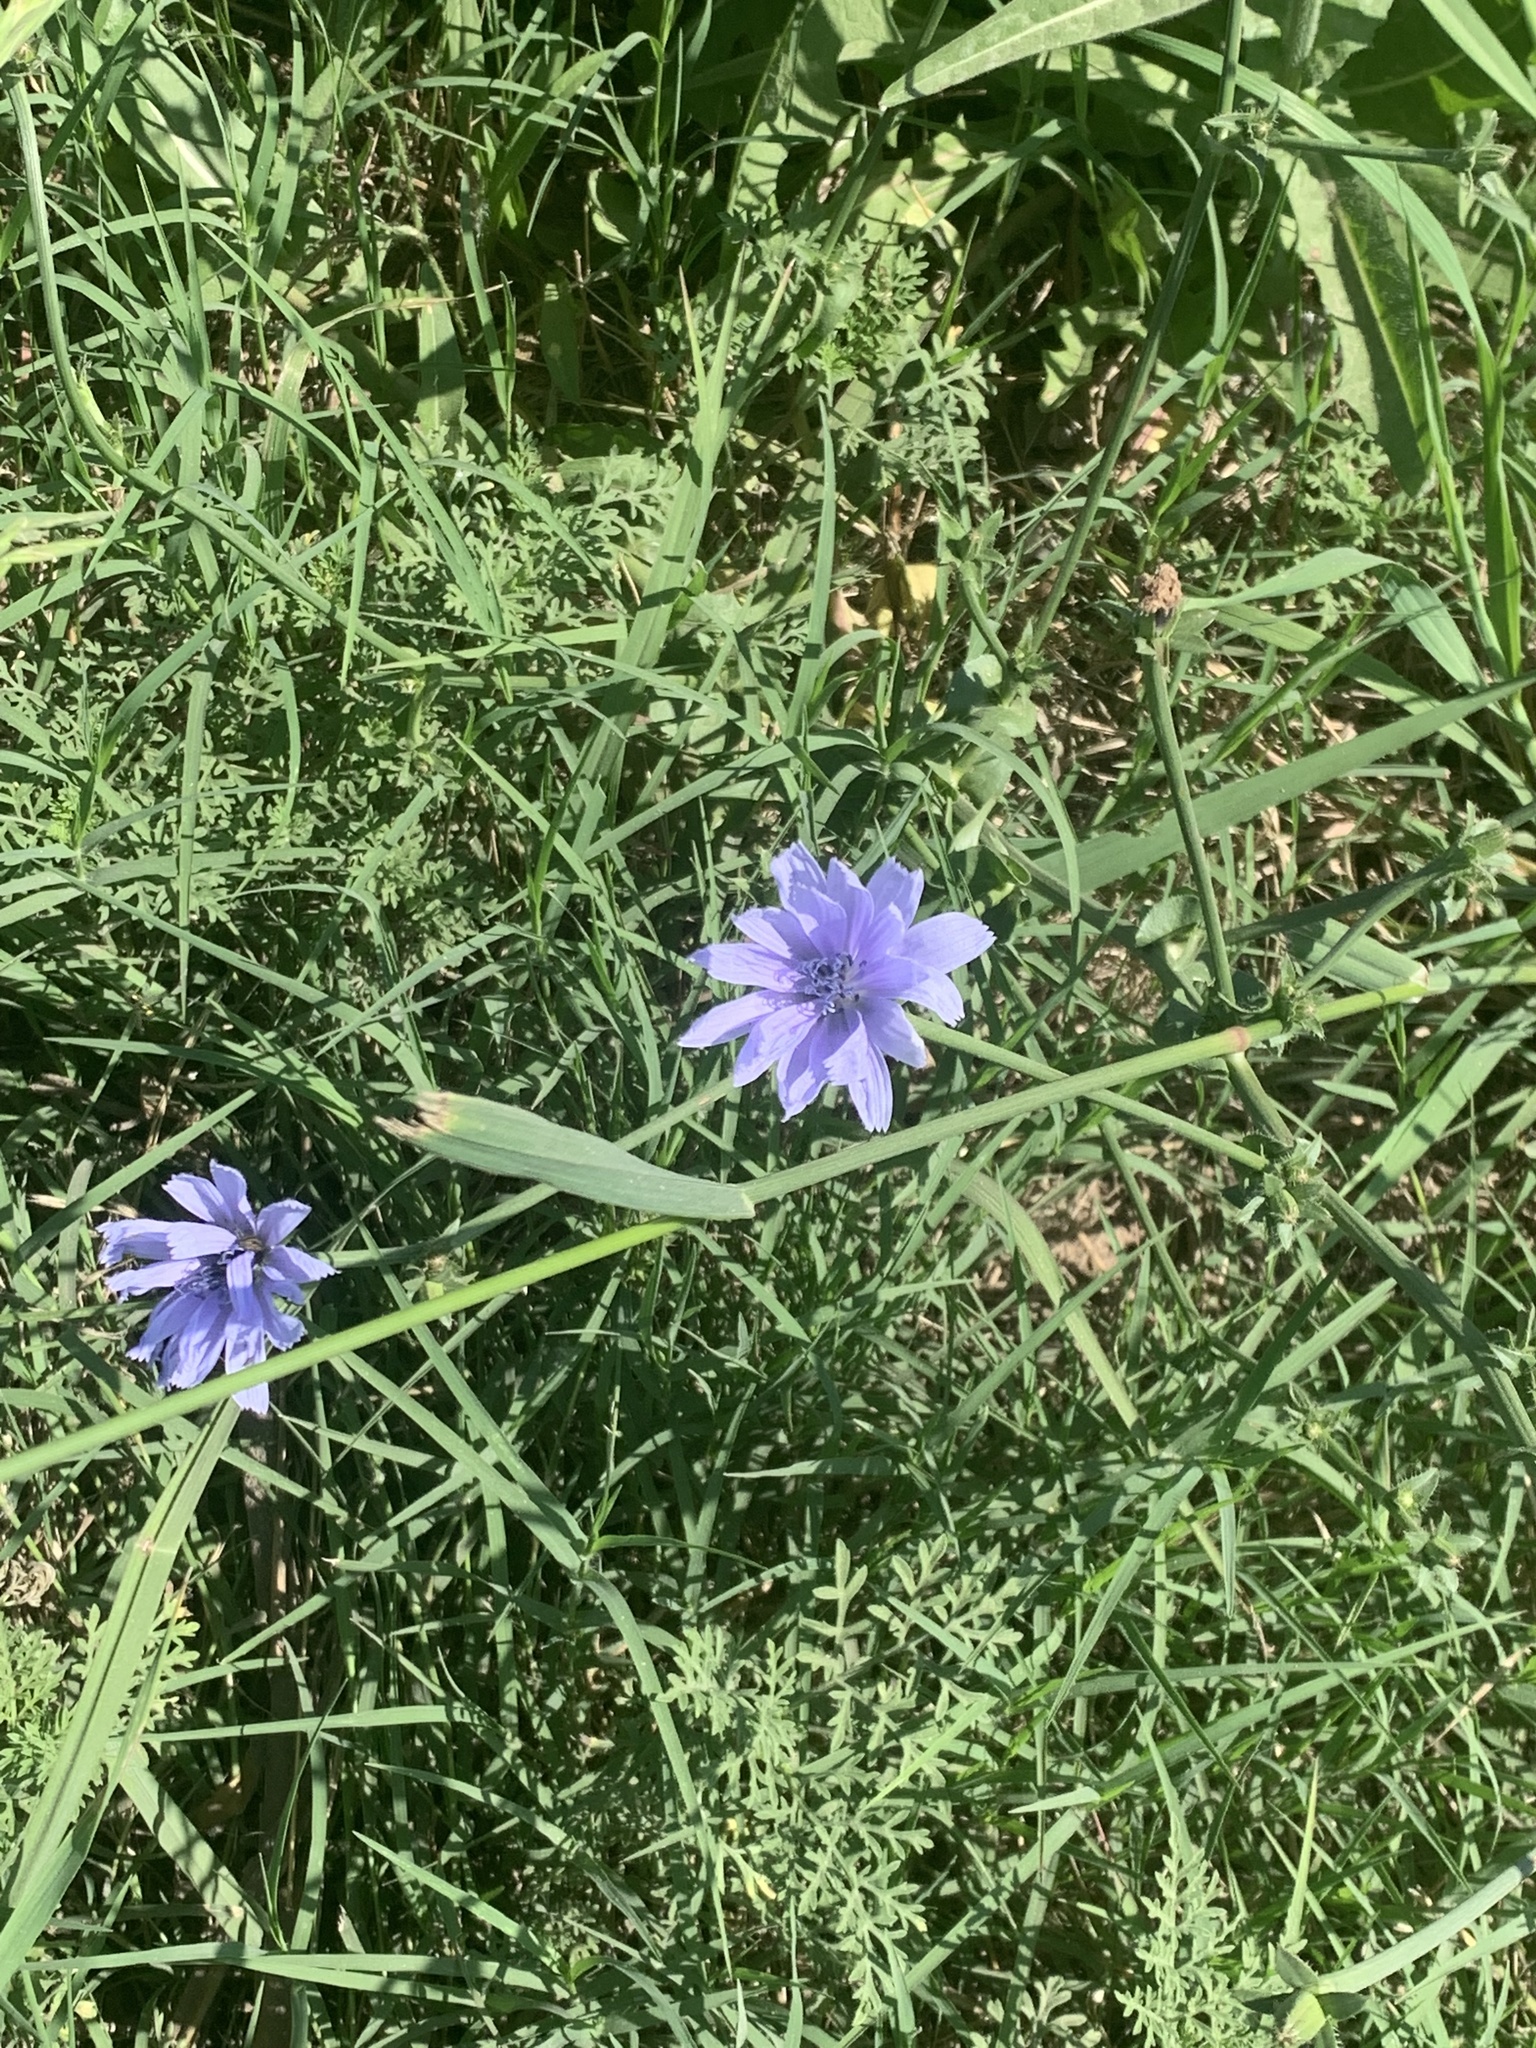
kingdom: Plantae
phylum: Tracheophyta
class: Magnoliopsida
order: Asterales
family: Asteraceae
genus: Cichorium
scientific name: Cichorium intybus
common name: Chicory
